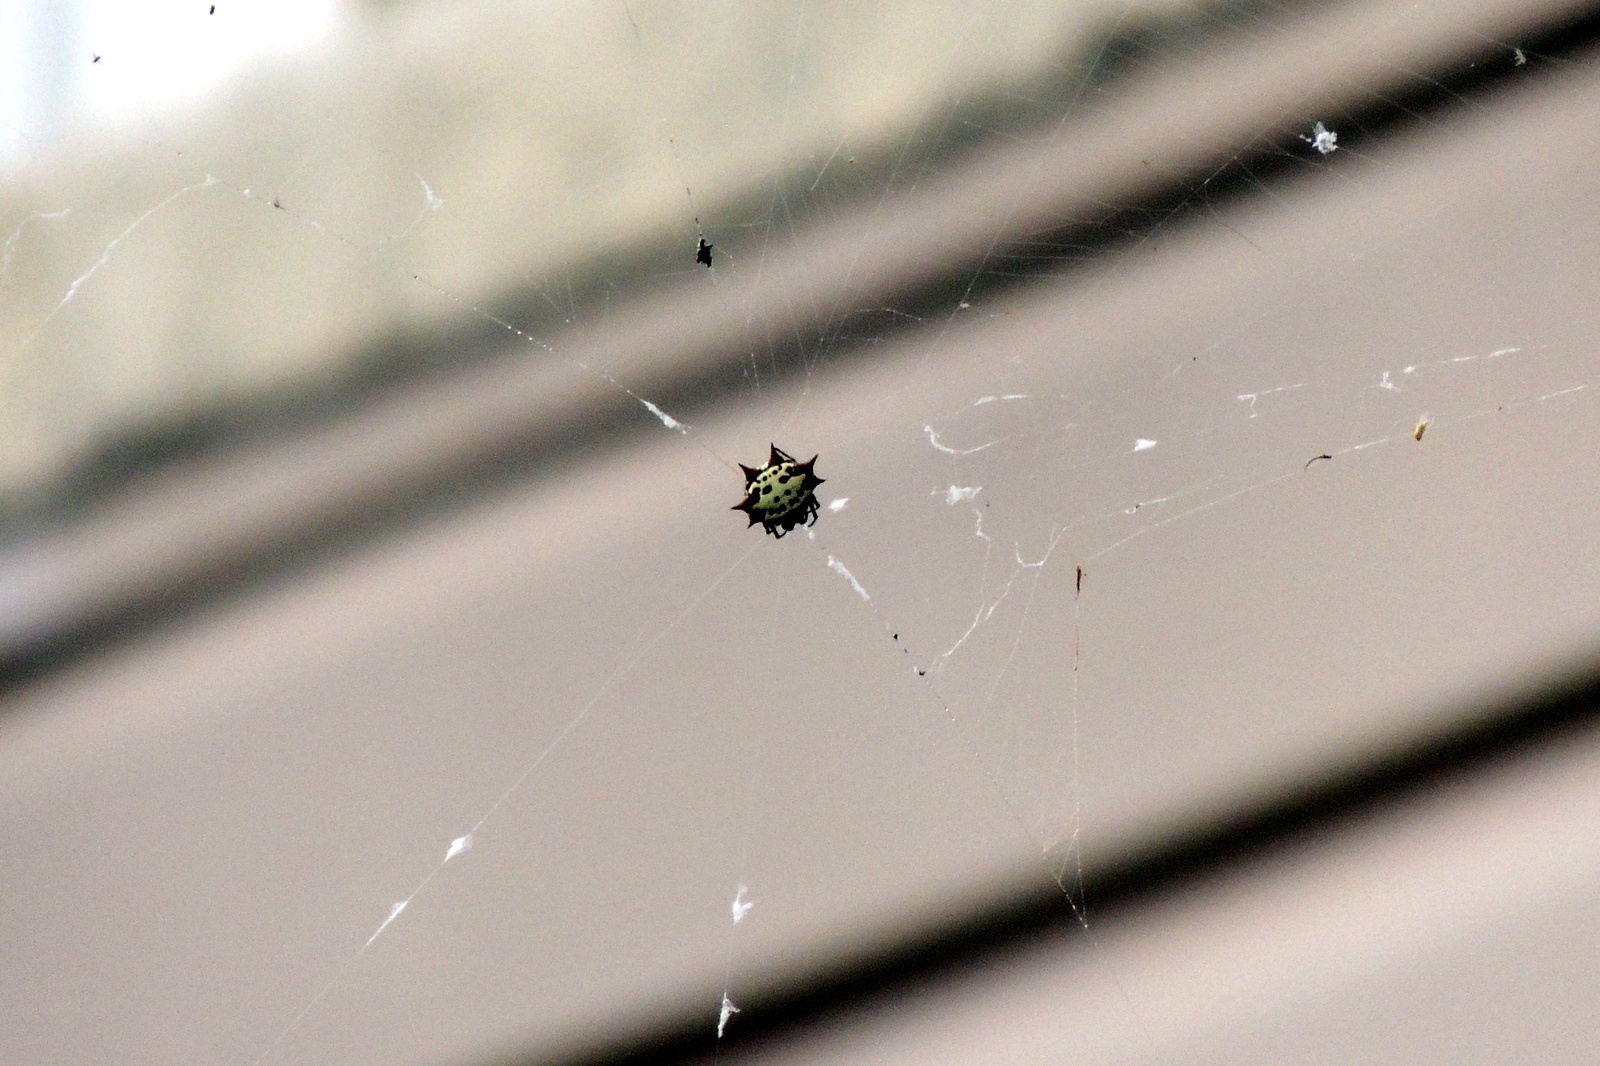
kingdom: Animalia
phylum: Arthropoda
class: Arachnida
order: Araneae
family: Araneidae
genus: Gasteracantha
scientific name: Gasteracantha cancriformis
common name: Orb weavers
